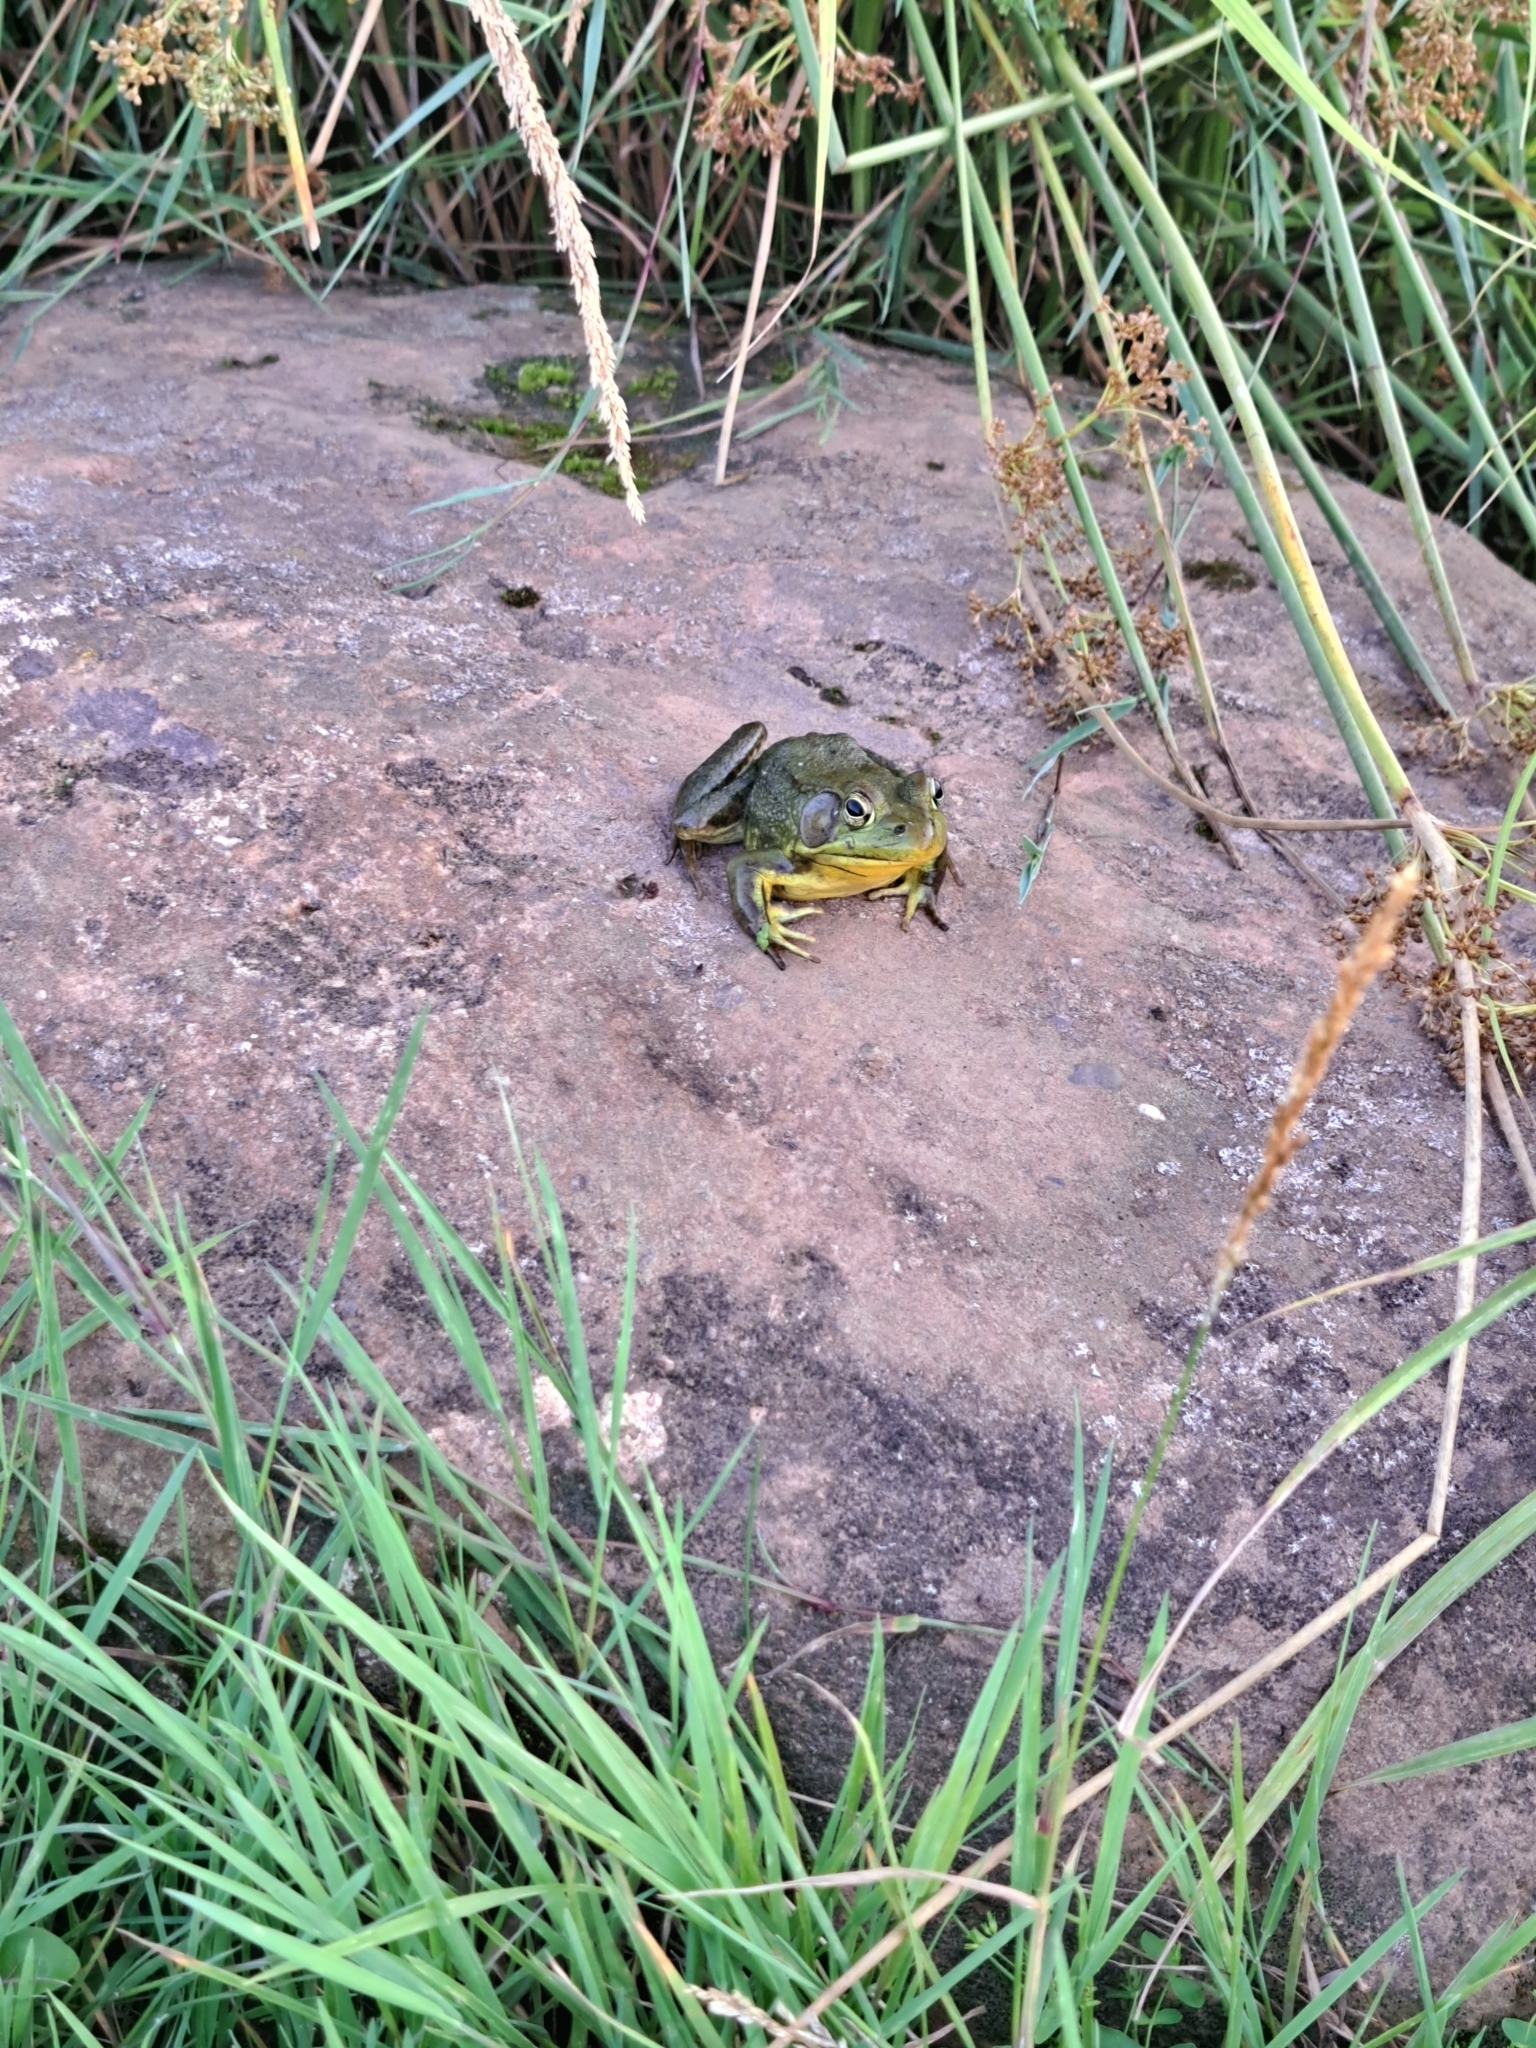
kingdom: Animalia
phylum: Chordata
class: Amphibia
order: Anura
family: Ranidae
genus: Lithobates
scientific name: Lithobates clamitans
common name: Green frog
